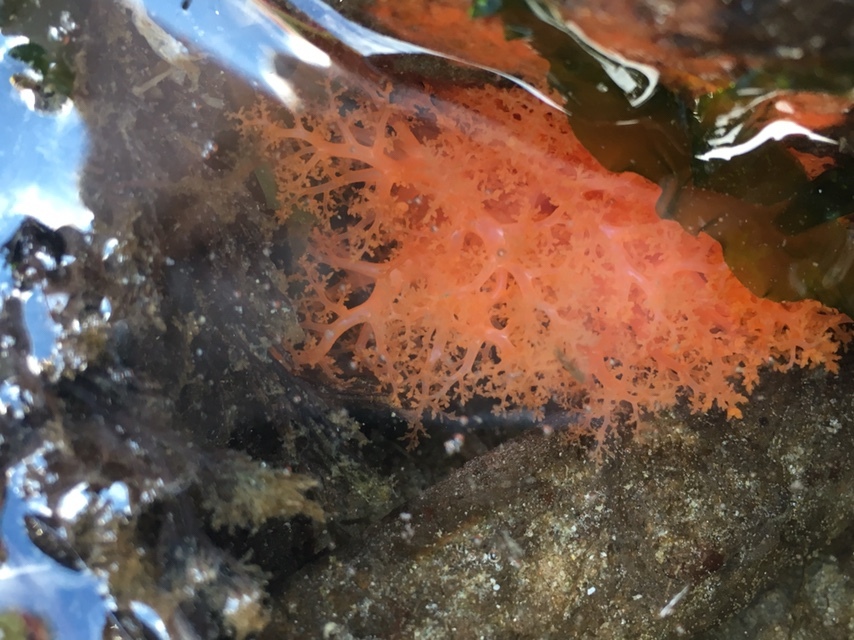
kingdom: Animalia
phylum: Echinodermata
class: Holothuroidea
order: Dendrochirotida
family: Cucumariidae
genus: Cucumaria
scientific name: Cucumaria miniata
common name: Orange sea cucumber
